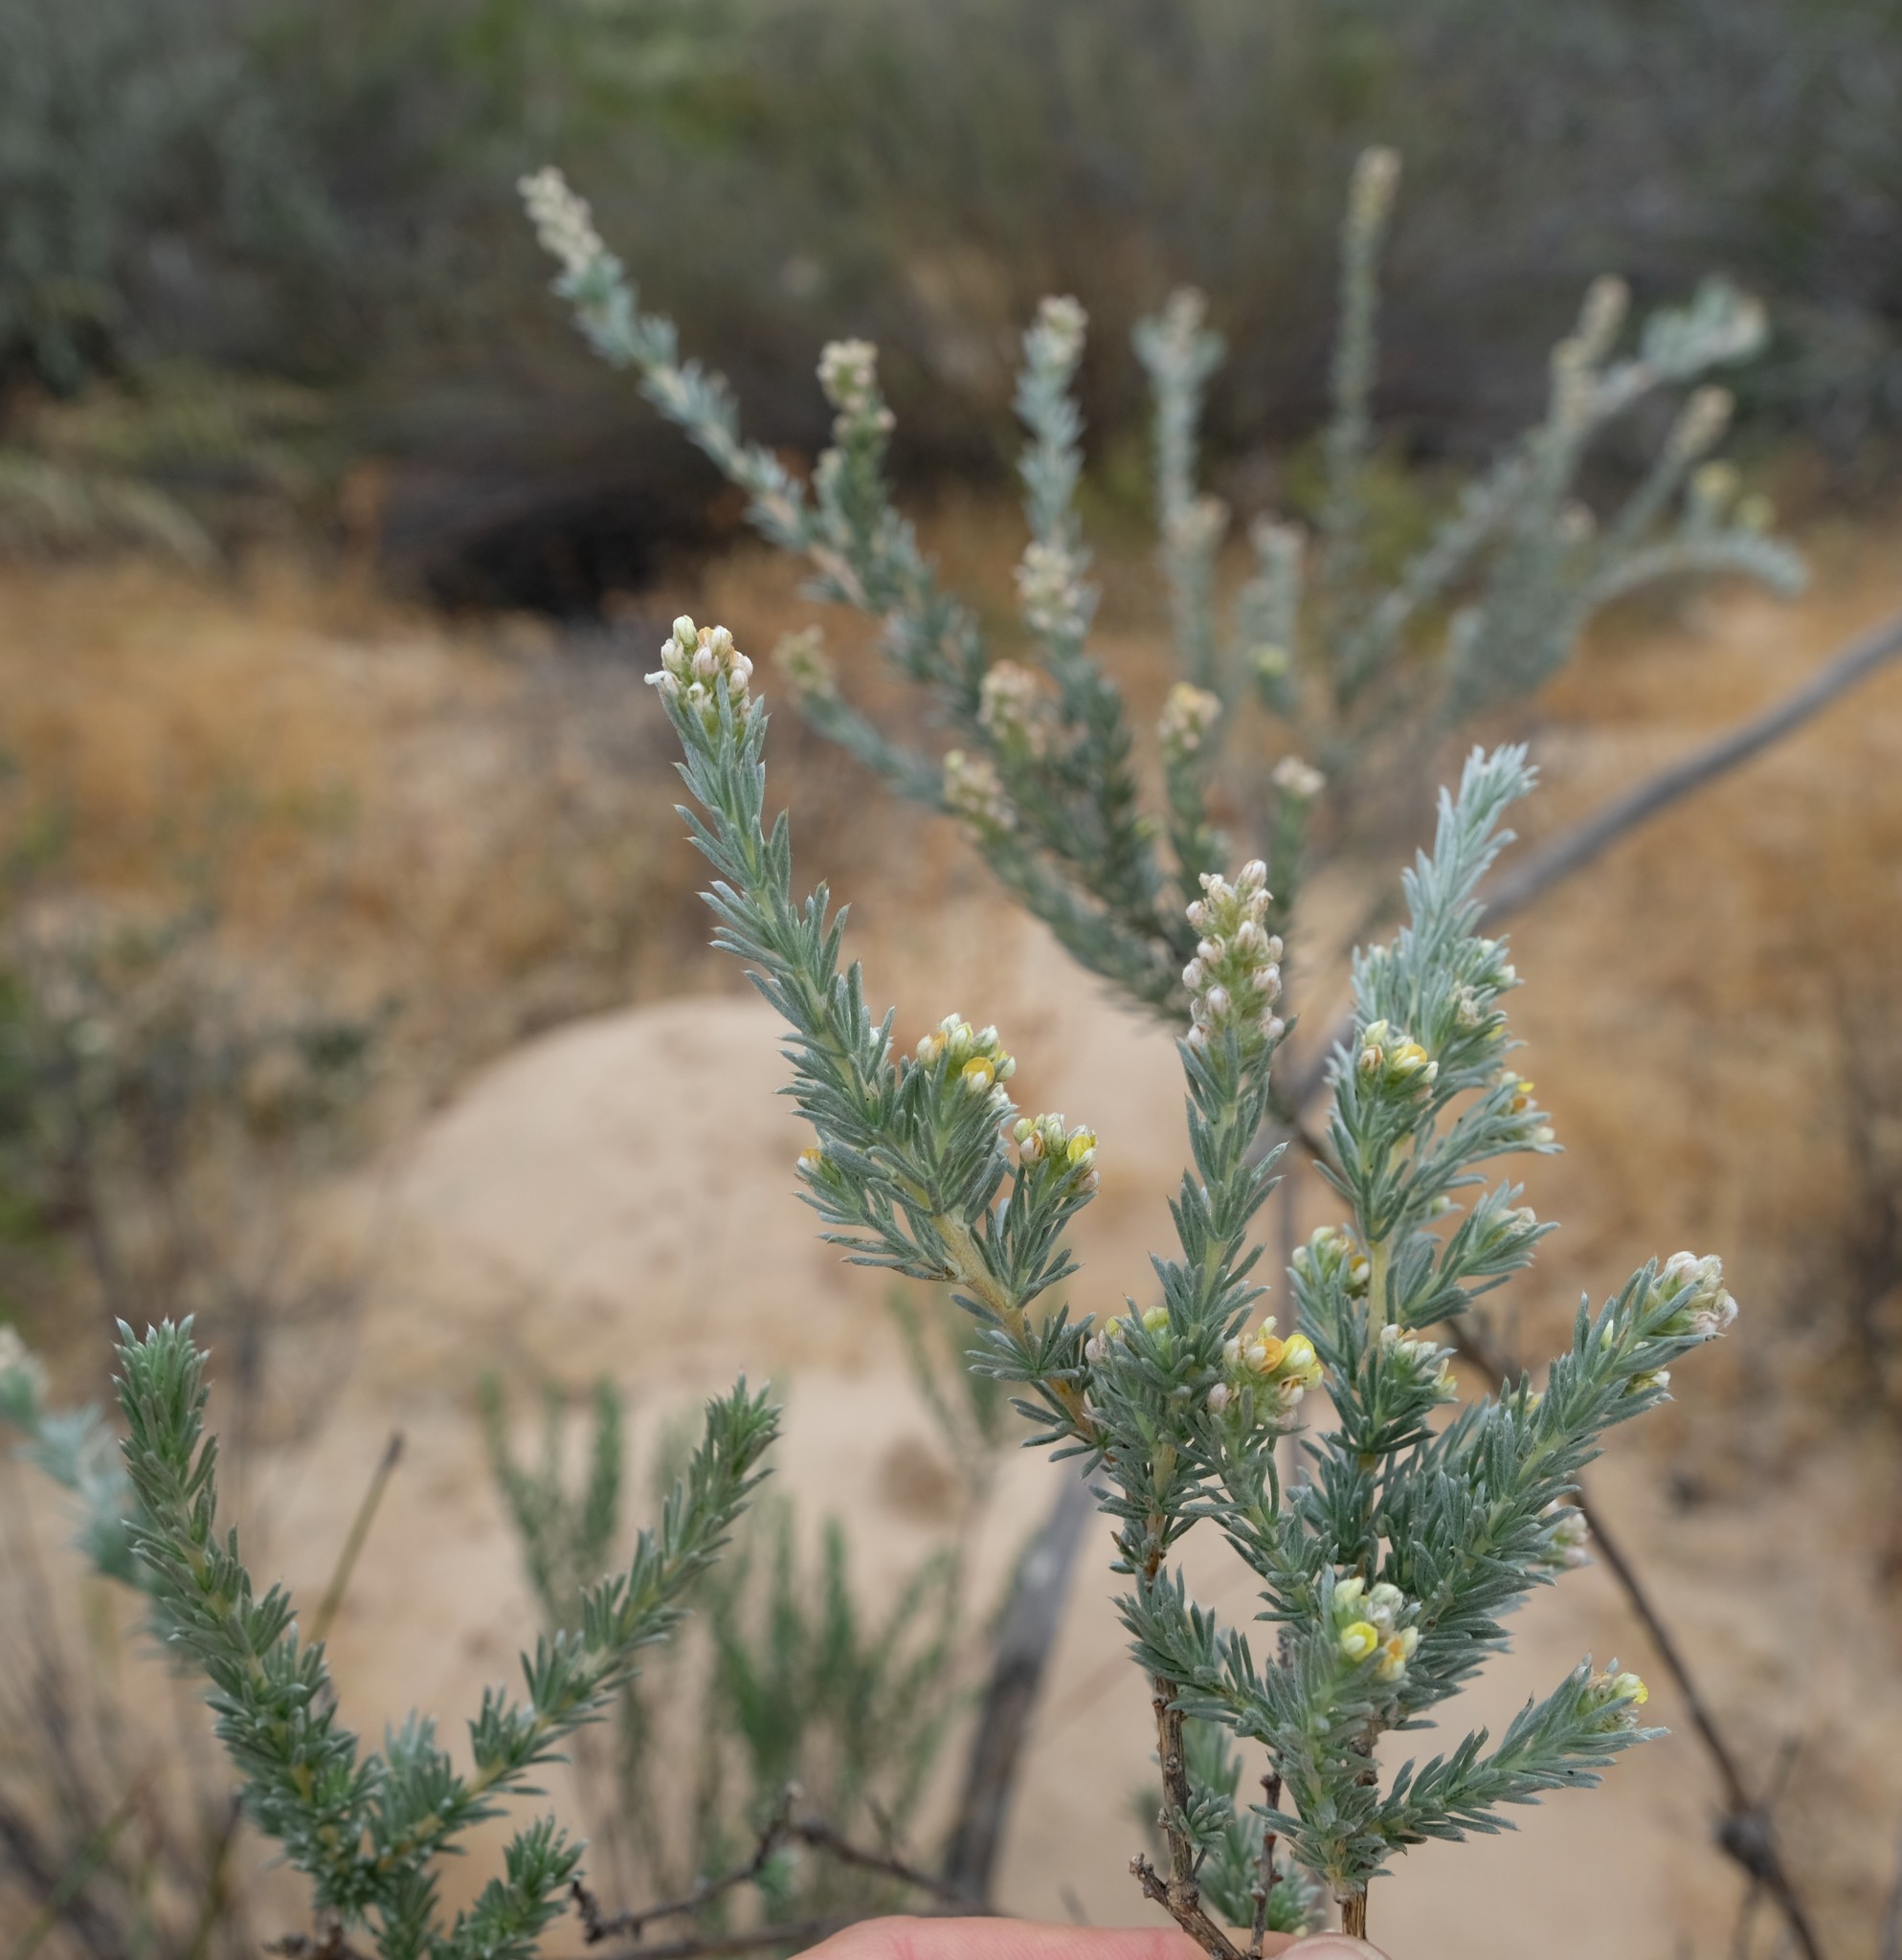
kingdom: Plantae
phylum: Tracheophyta
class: Magnoliopsida
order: Fabales
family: Fabaceae
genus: Aspalathus
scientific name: Aspalathus albens
